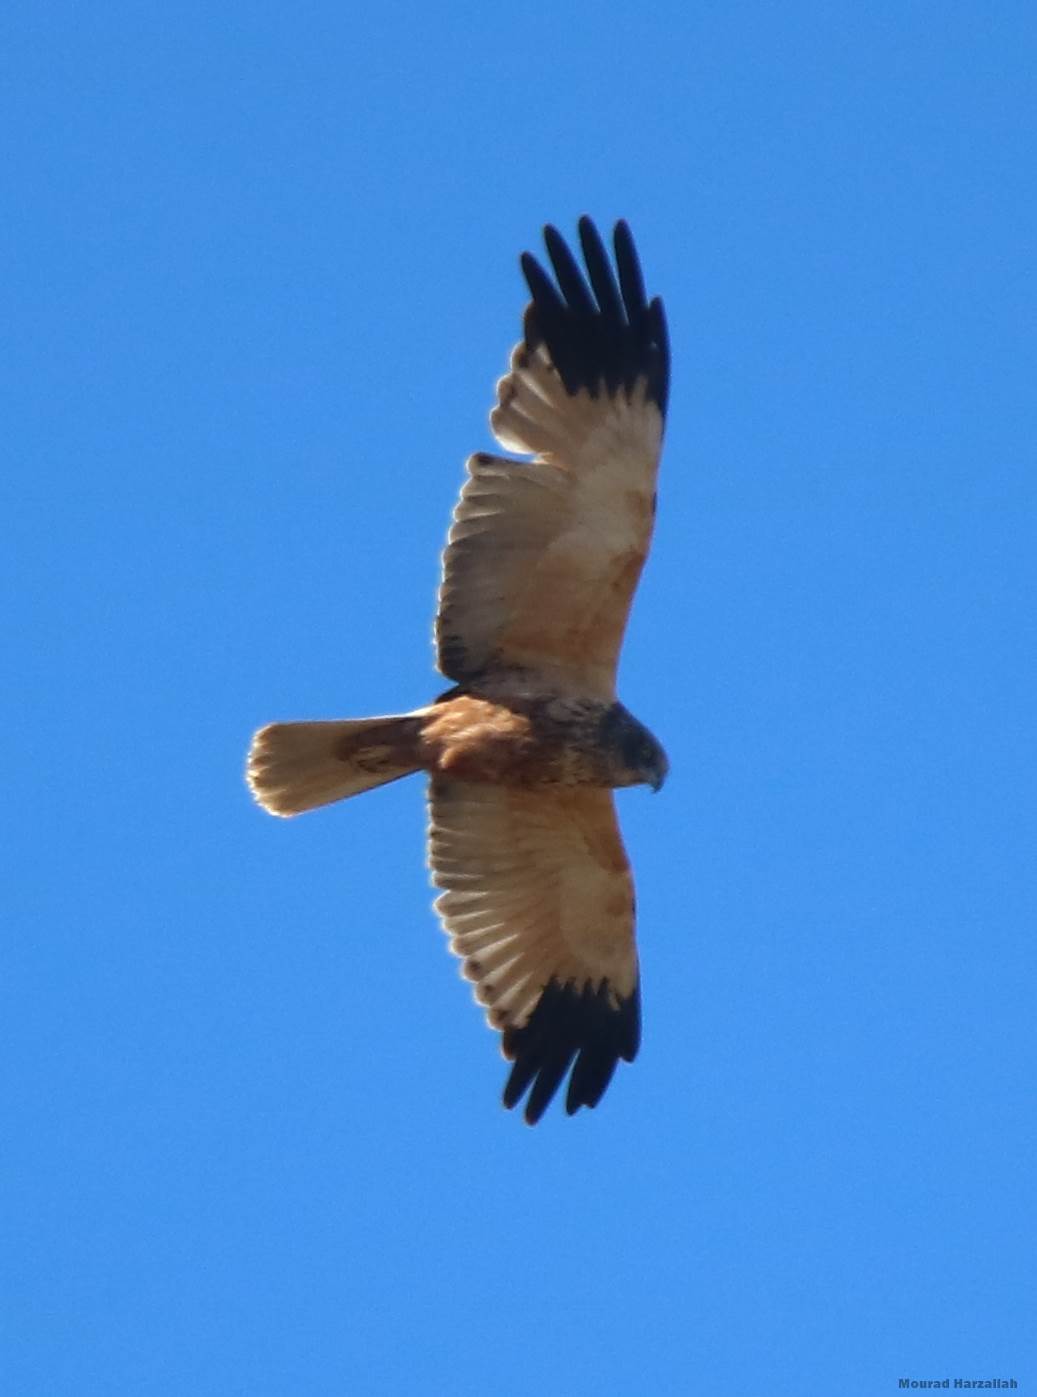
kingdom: Animalia
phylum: Chordata
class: Aves
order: Accipitriformes
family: Accipitridae
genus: Circus
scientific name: Circus aeruginosus
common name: Western marsh harrier
